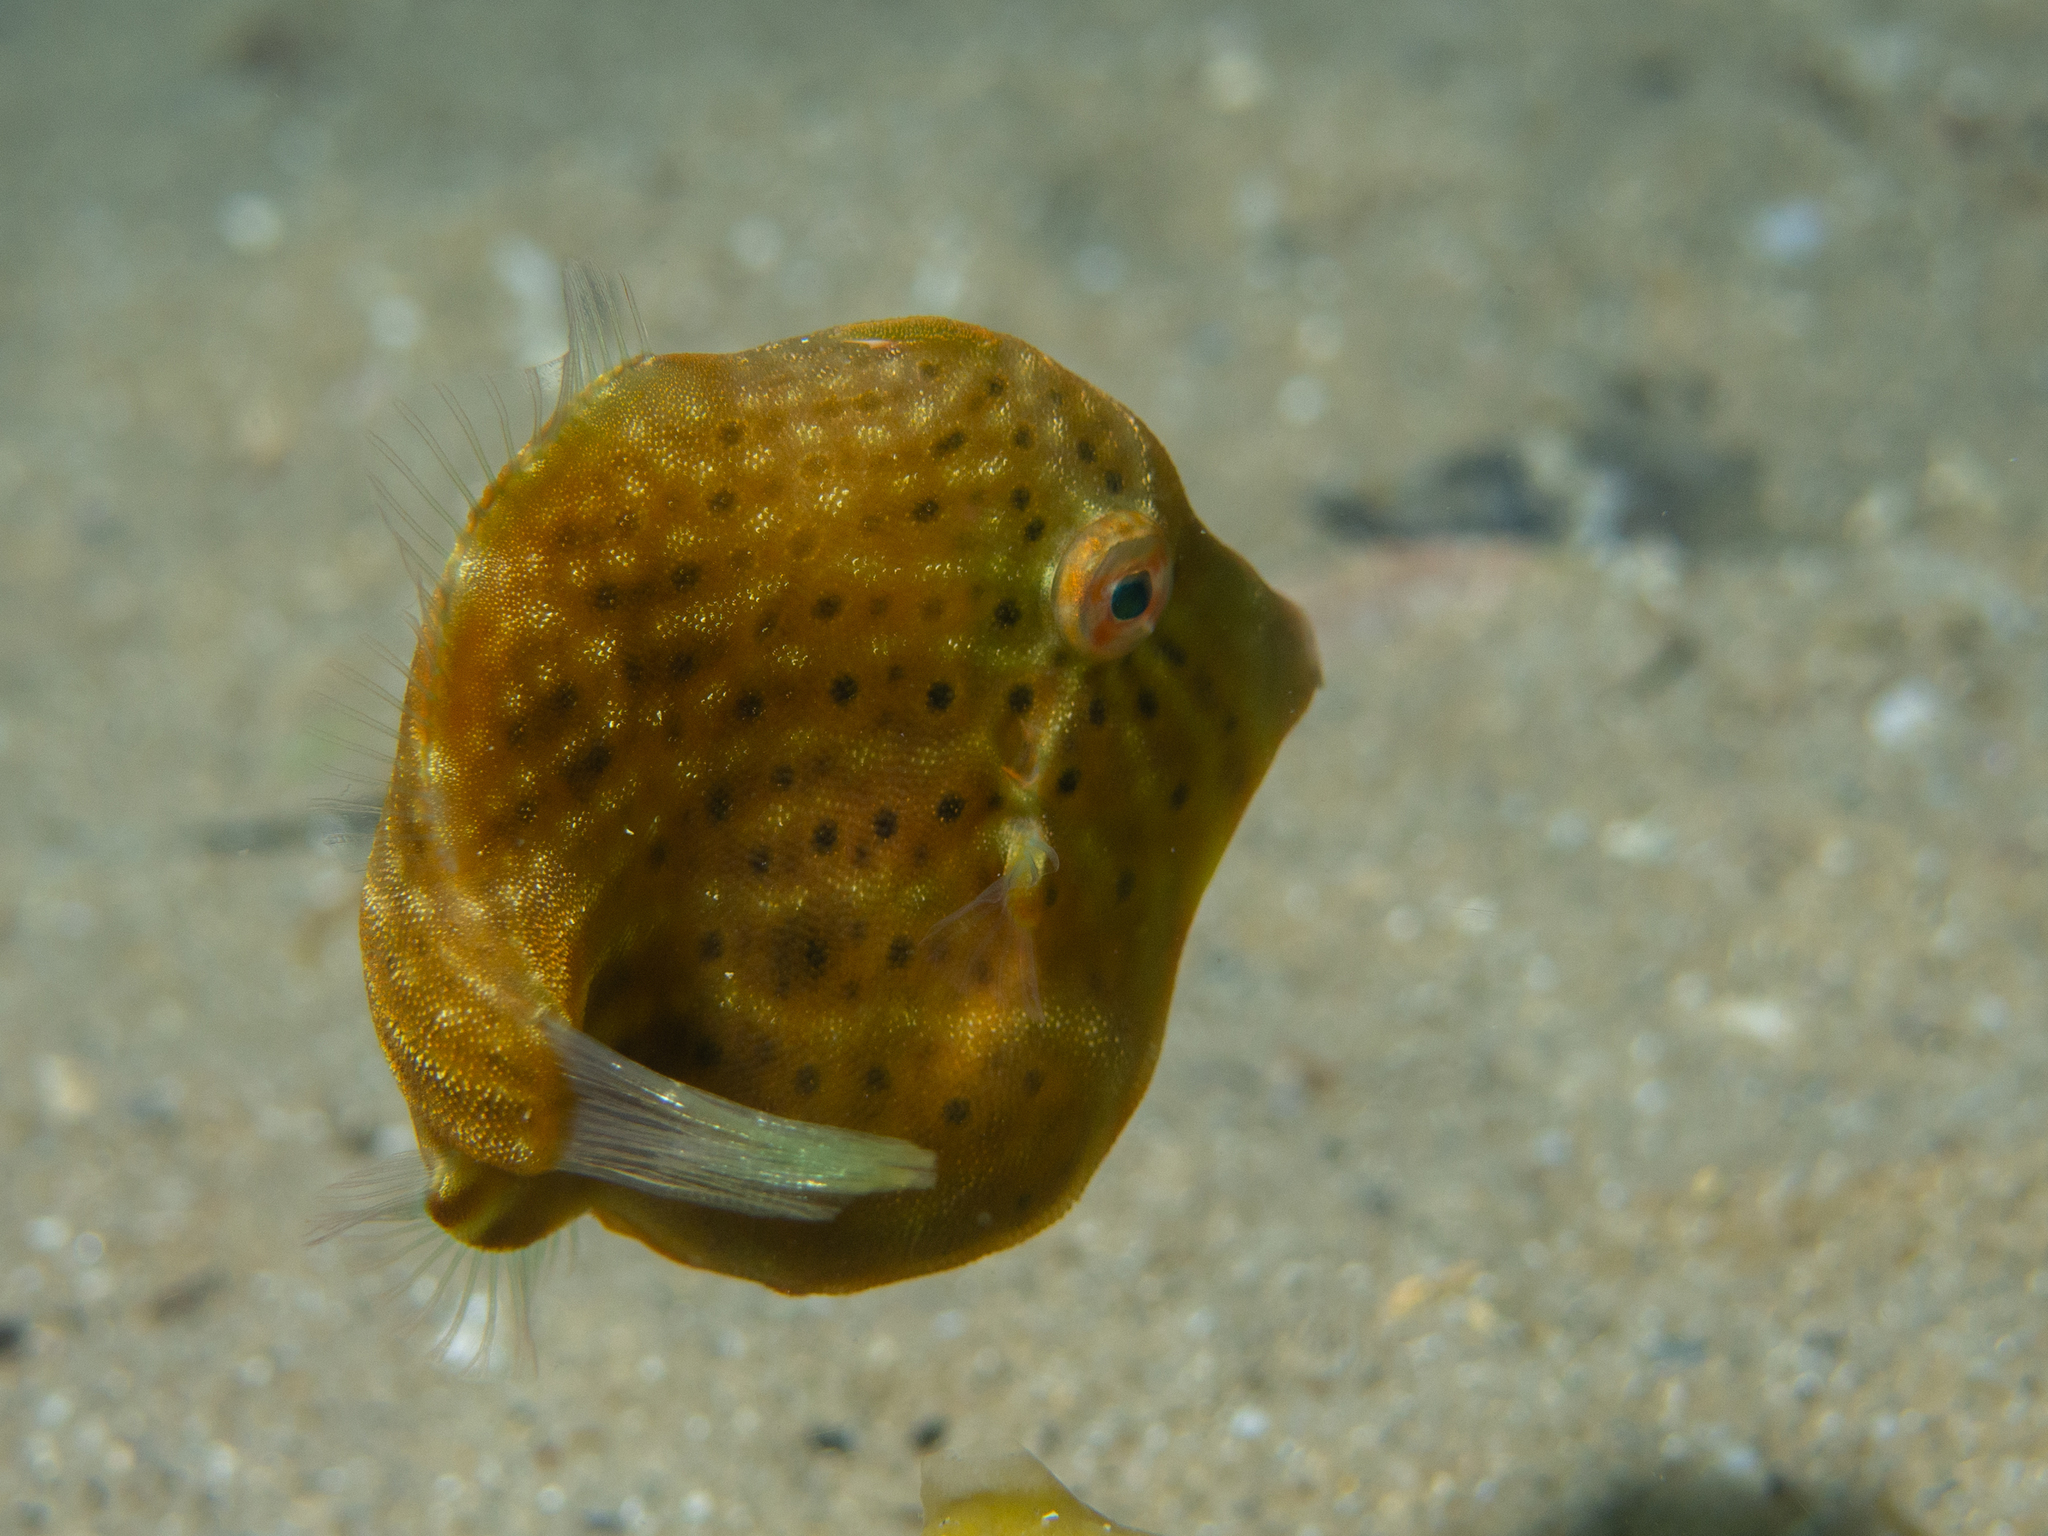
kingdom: Animalia
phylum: Chordata
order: Tetraodontiformes
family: Monacanthidae
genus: Brachaluteres
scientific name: Brachaluteres jacksonianus
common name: Pigmy leatherjacket
